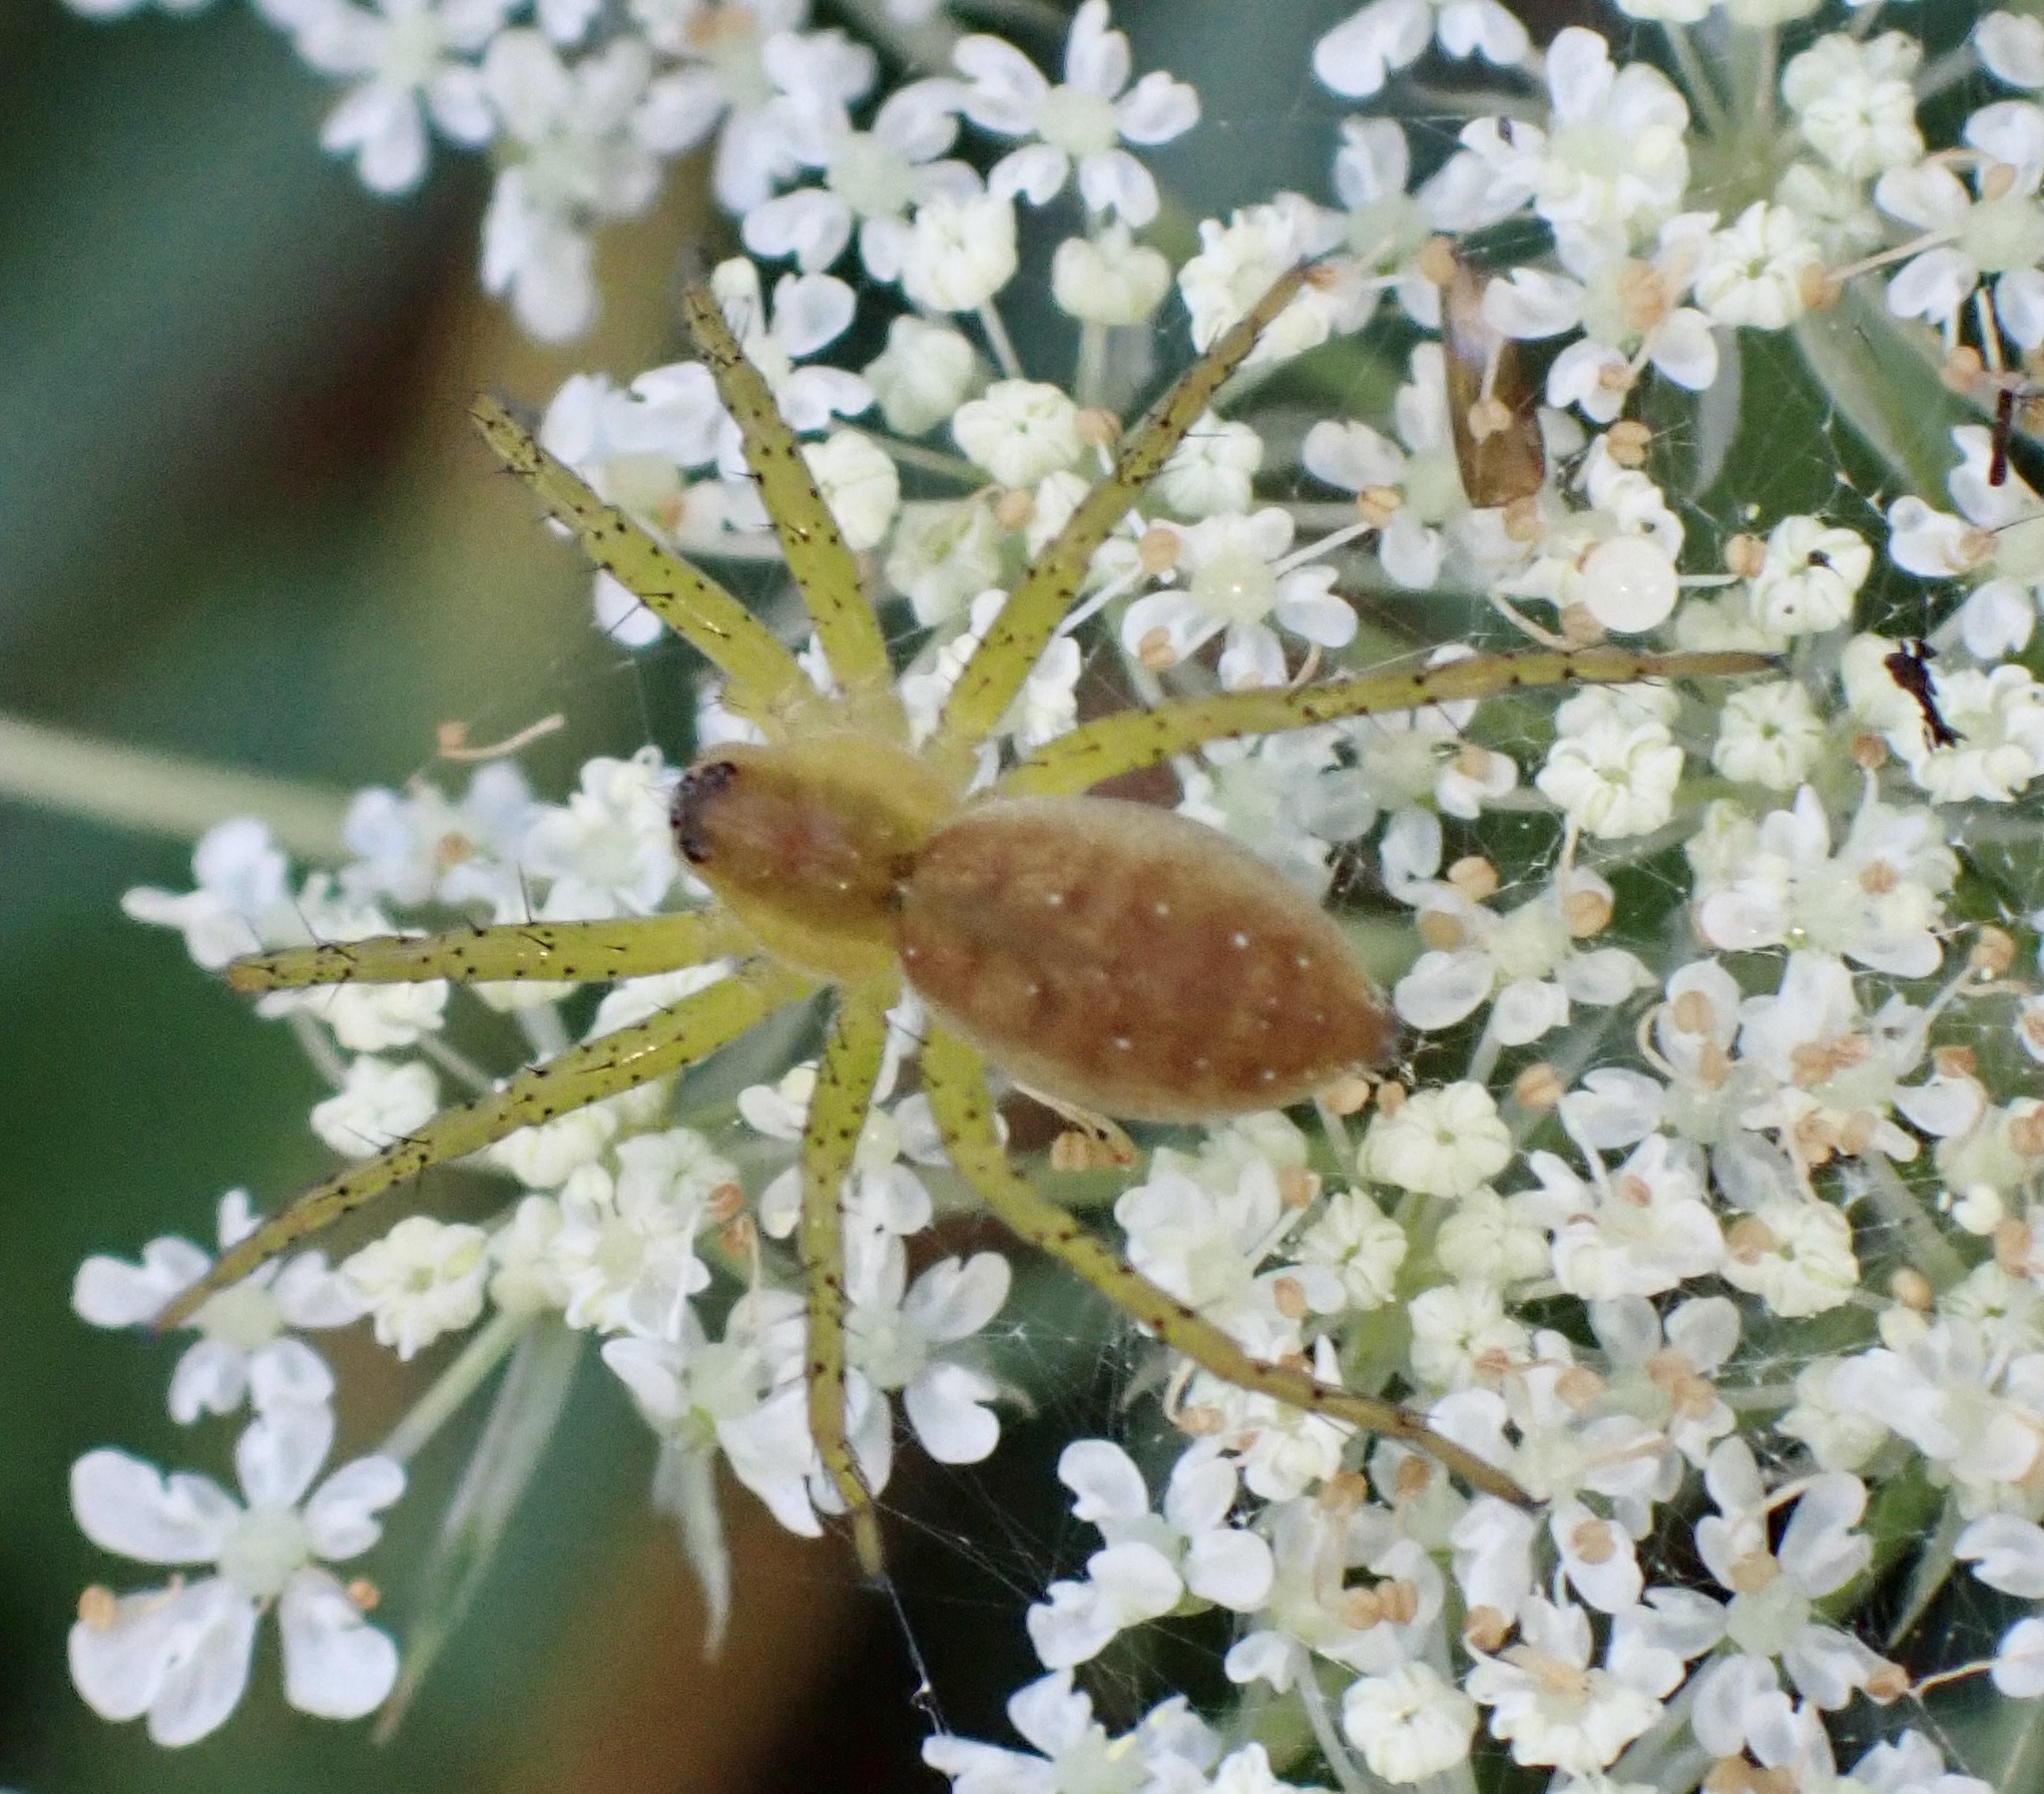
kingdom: Animalia
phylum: Arthropoda
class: Arachnida
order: Araneae
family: Pisauridae
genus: Dolomedes
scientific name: Dolomedes
